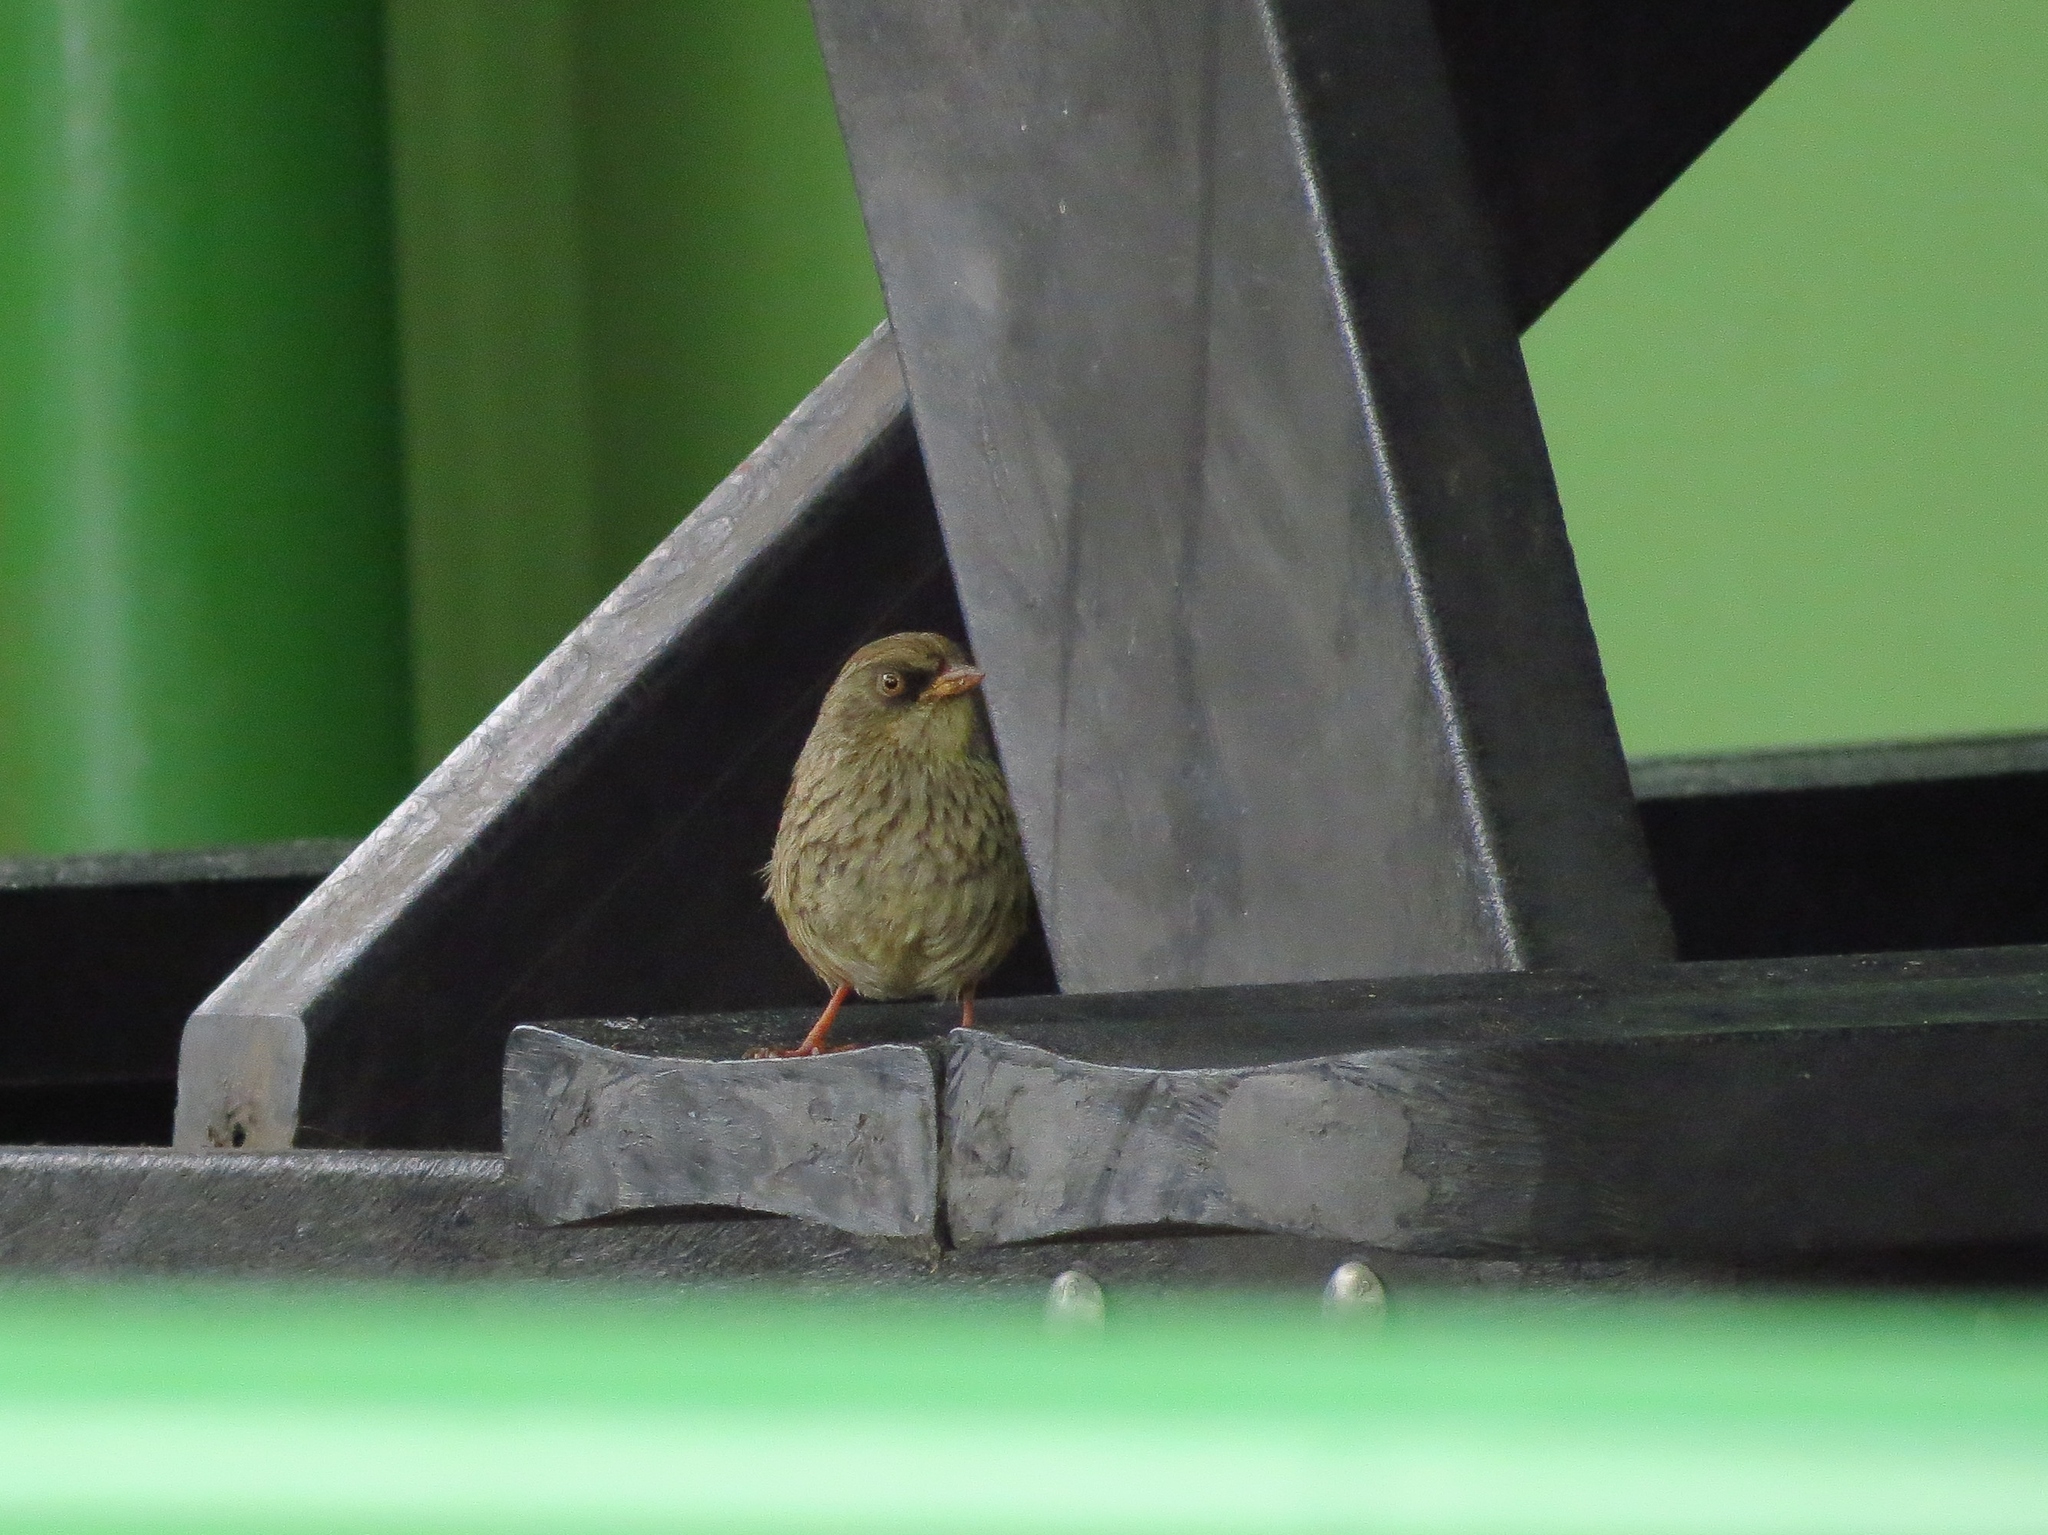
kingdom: Animalia
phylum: Chordata
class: Aves
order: Passeriformes
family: Passerellidae
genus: Junco
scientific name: Junco vulcani
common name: Volcano junco
